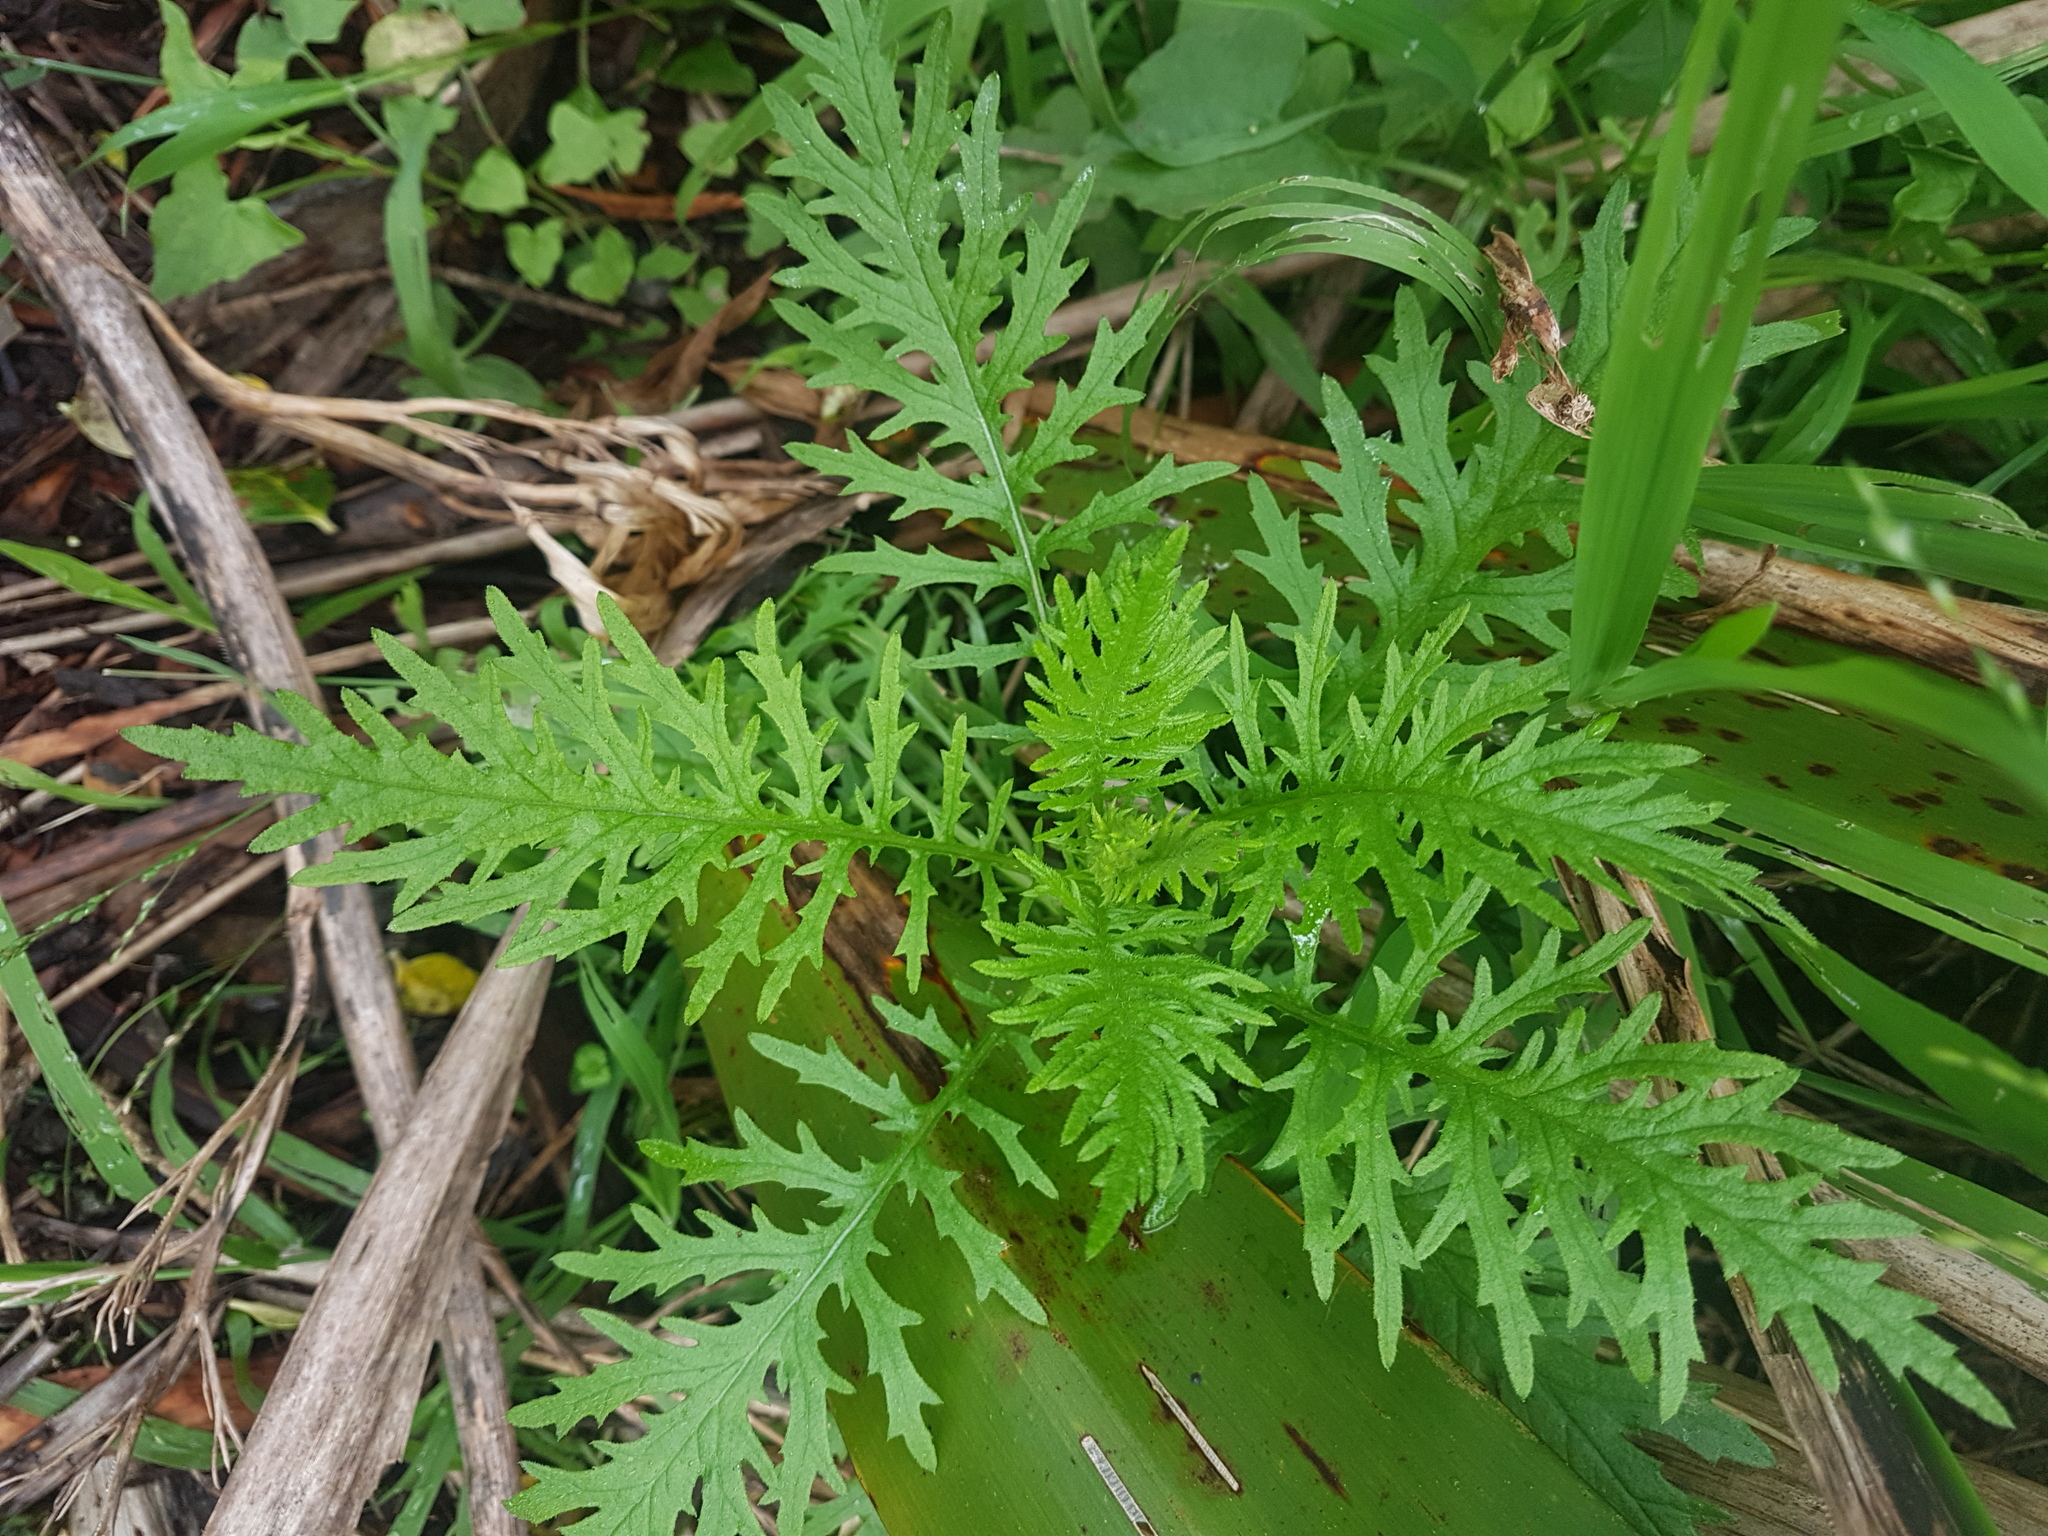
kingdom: Plantae
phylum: Tracheophyta
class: Magnoliopsida
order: Asterales
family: Asteraceae
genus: Senecio
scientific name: Senecio bipinnatisectus
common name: Australian fireweed
